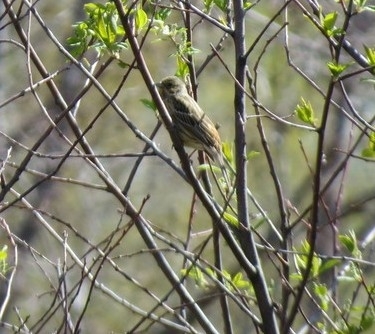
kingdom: Animalia
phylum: Chordata
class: Aves
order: Passeriformes
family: Emberizidae
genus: Emberiza
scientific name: Emberiza citrinella
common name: Yellowhammer
